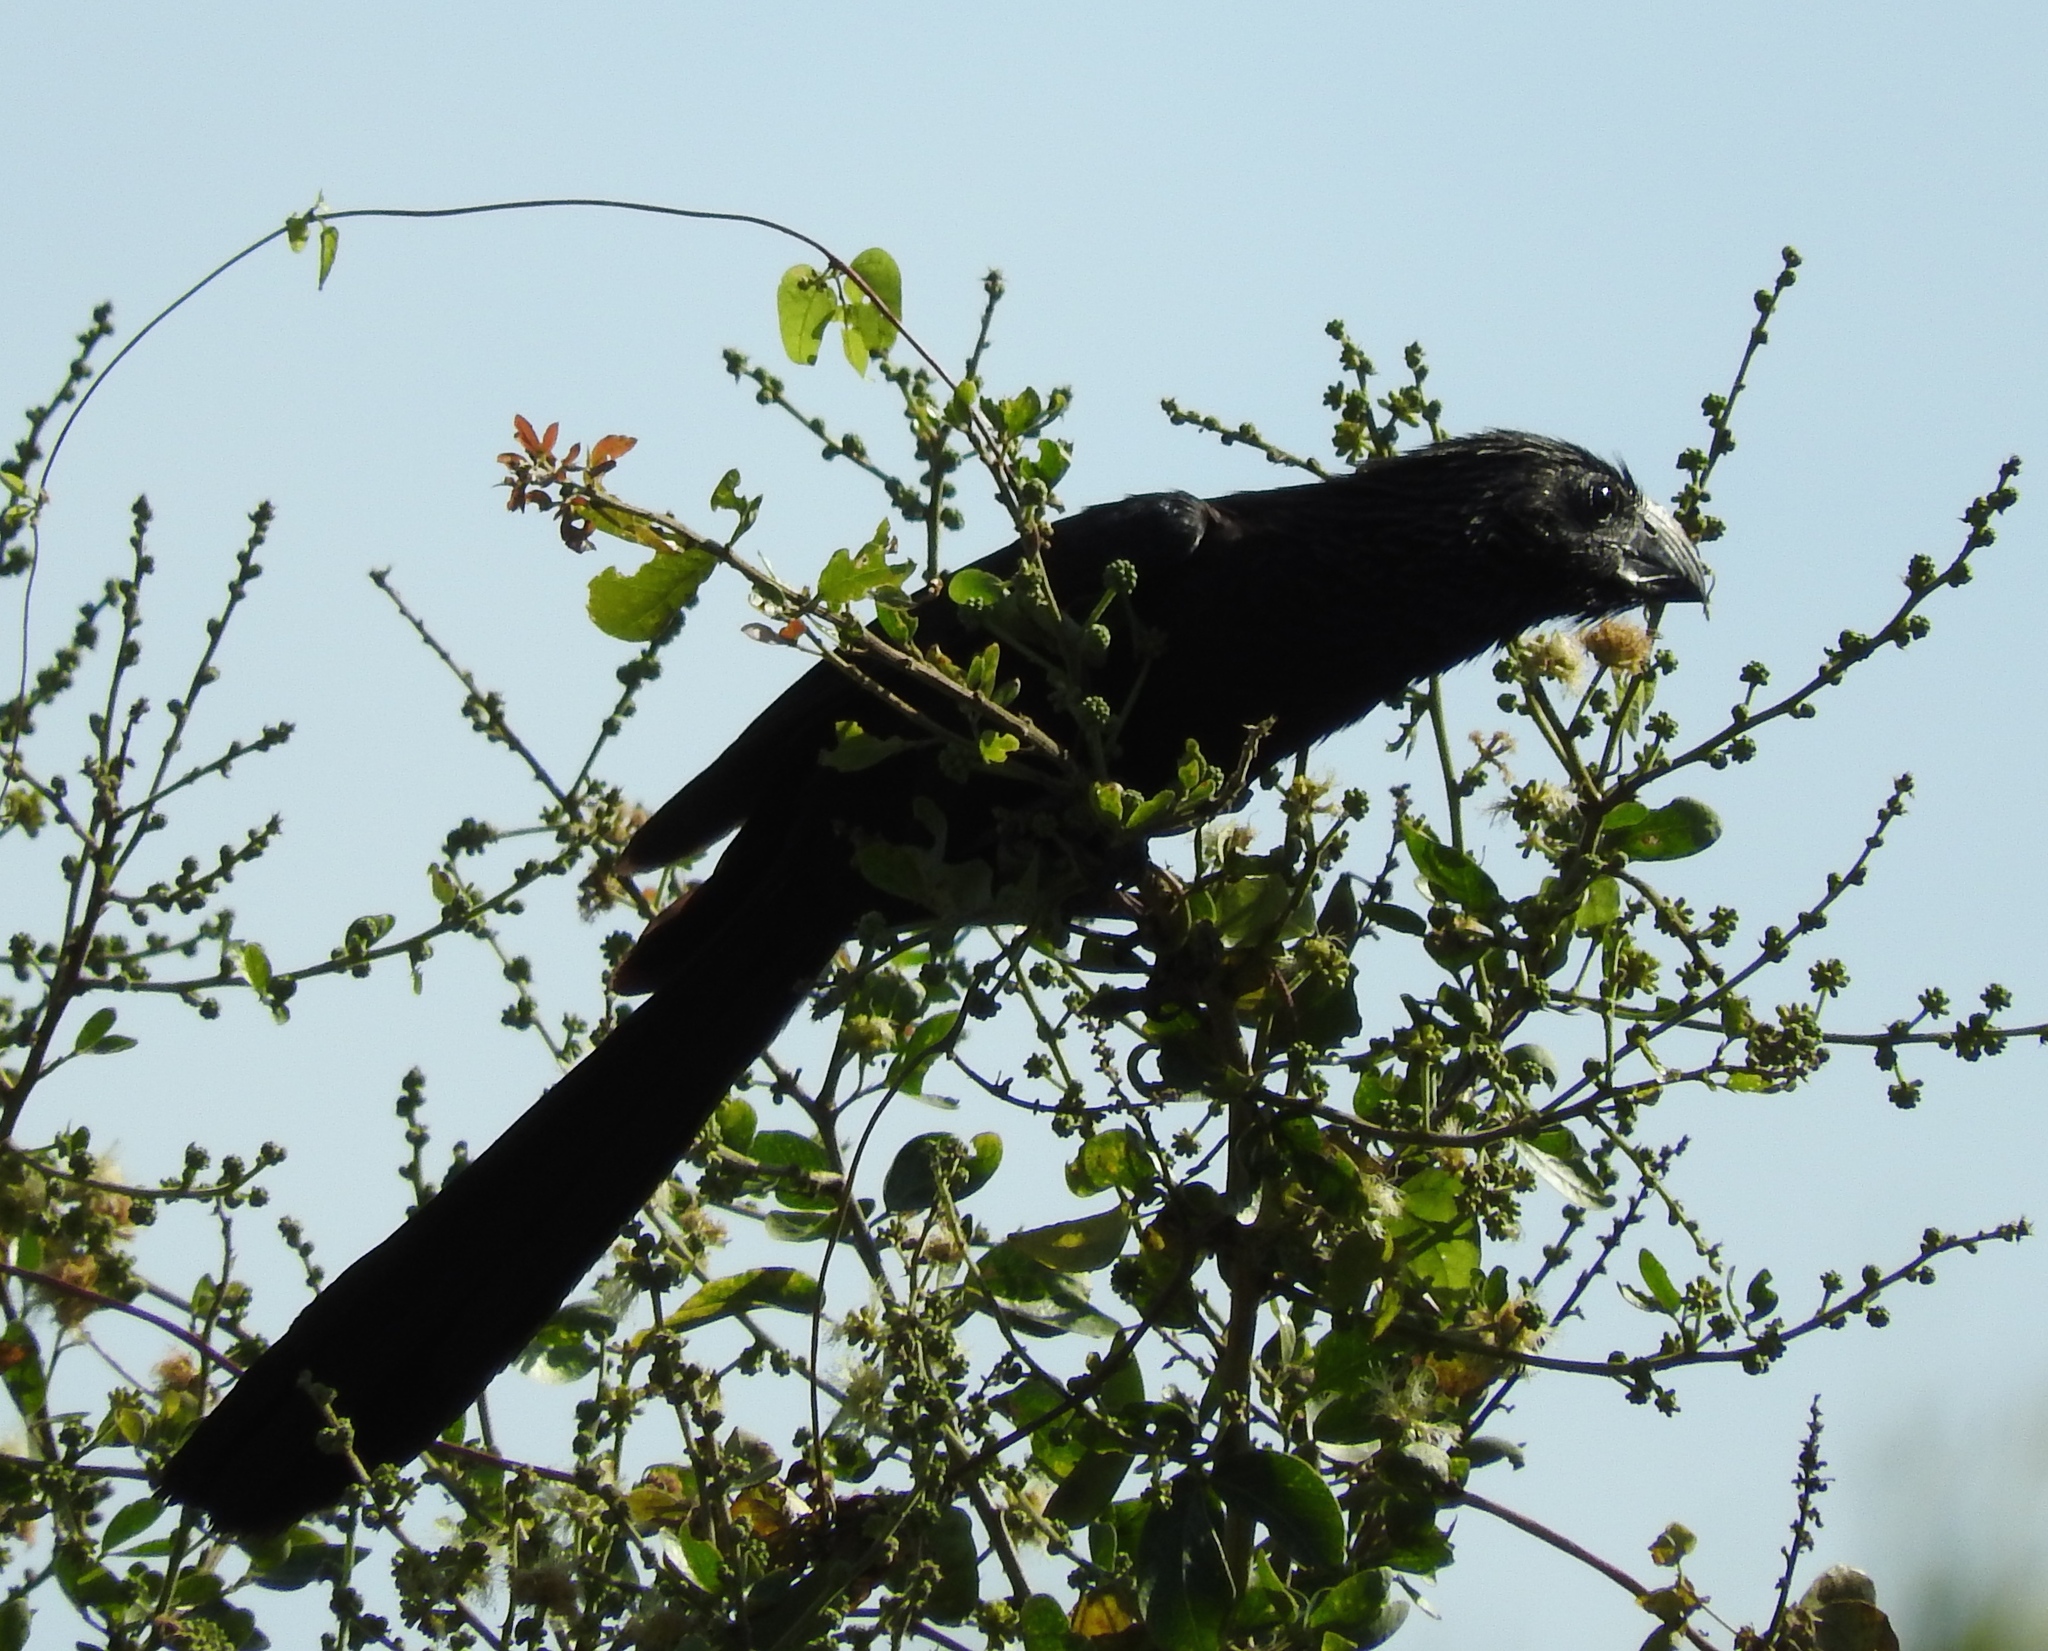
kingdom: Animalia
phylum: Chordata
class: Aves
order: Cuculiformes
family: Cuculidae
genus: Crotophaga
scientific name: Crotophaga sulcirostris
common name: Groove-billed ani
